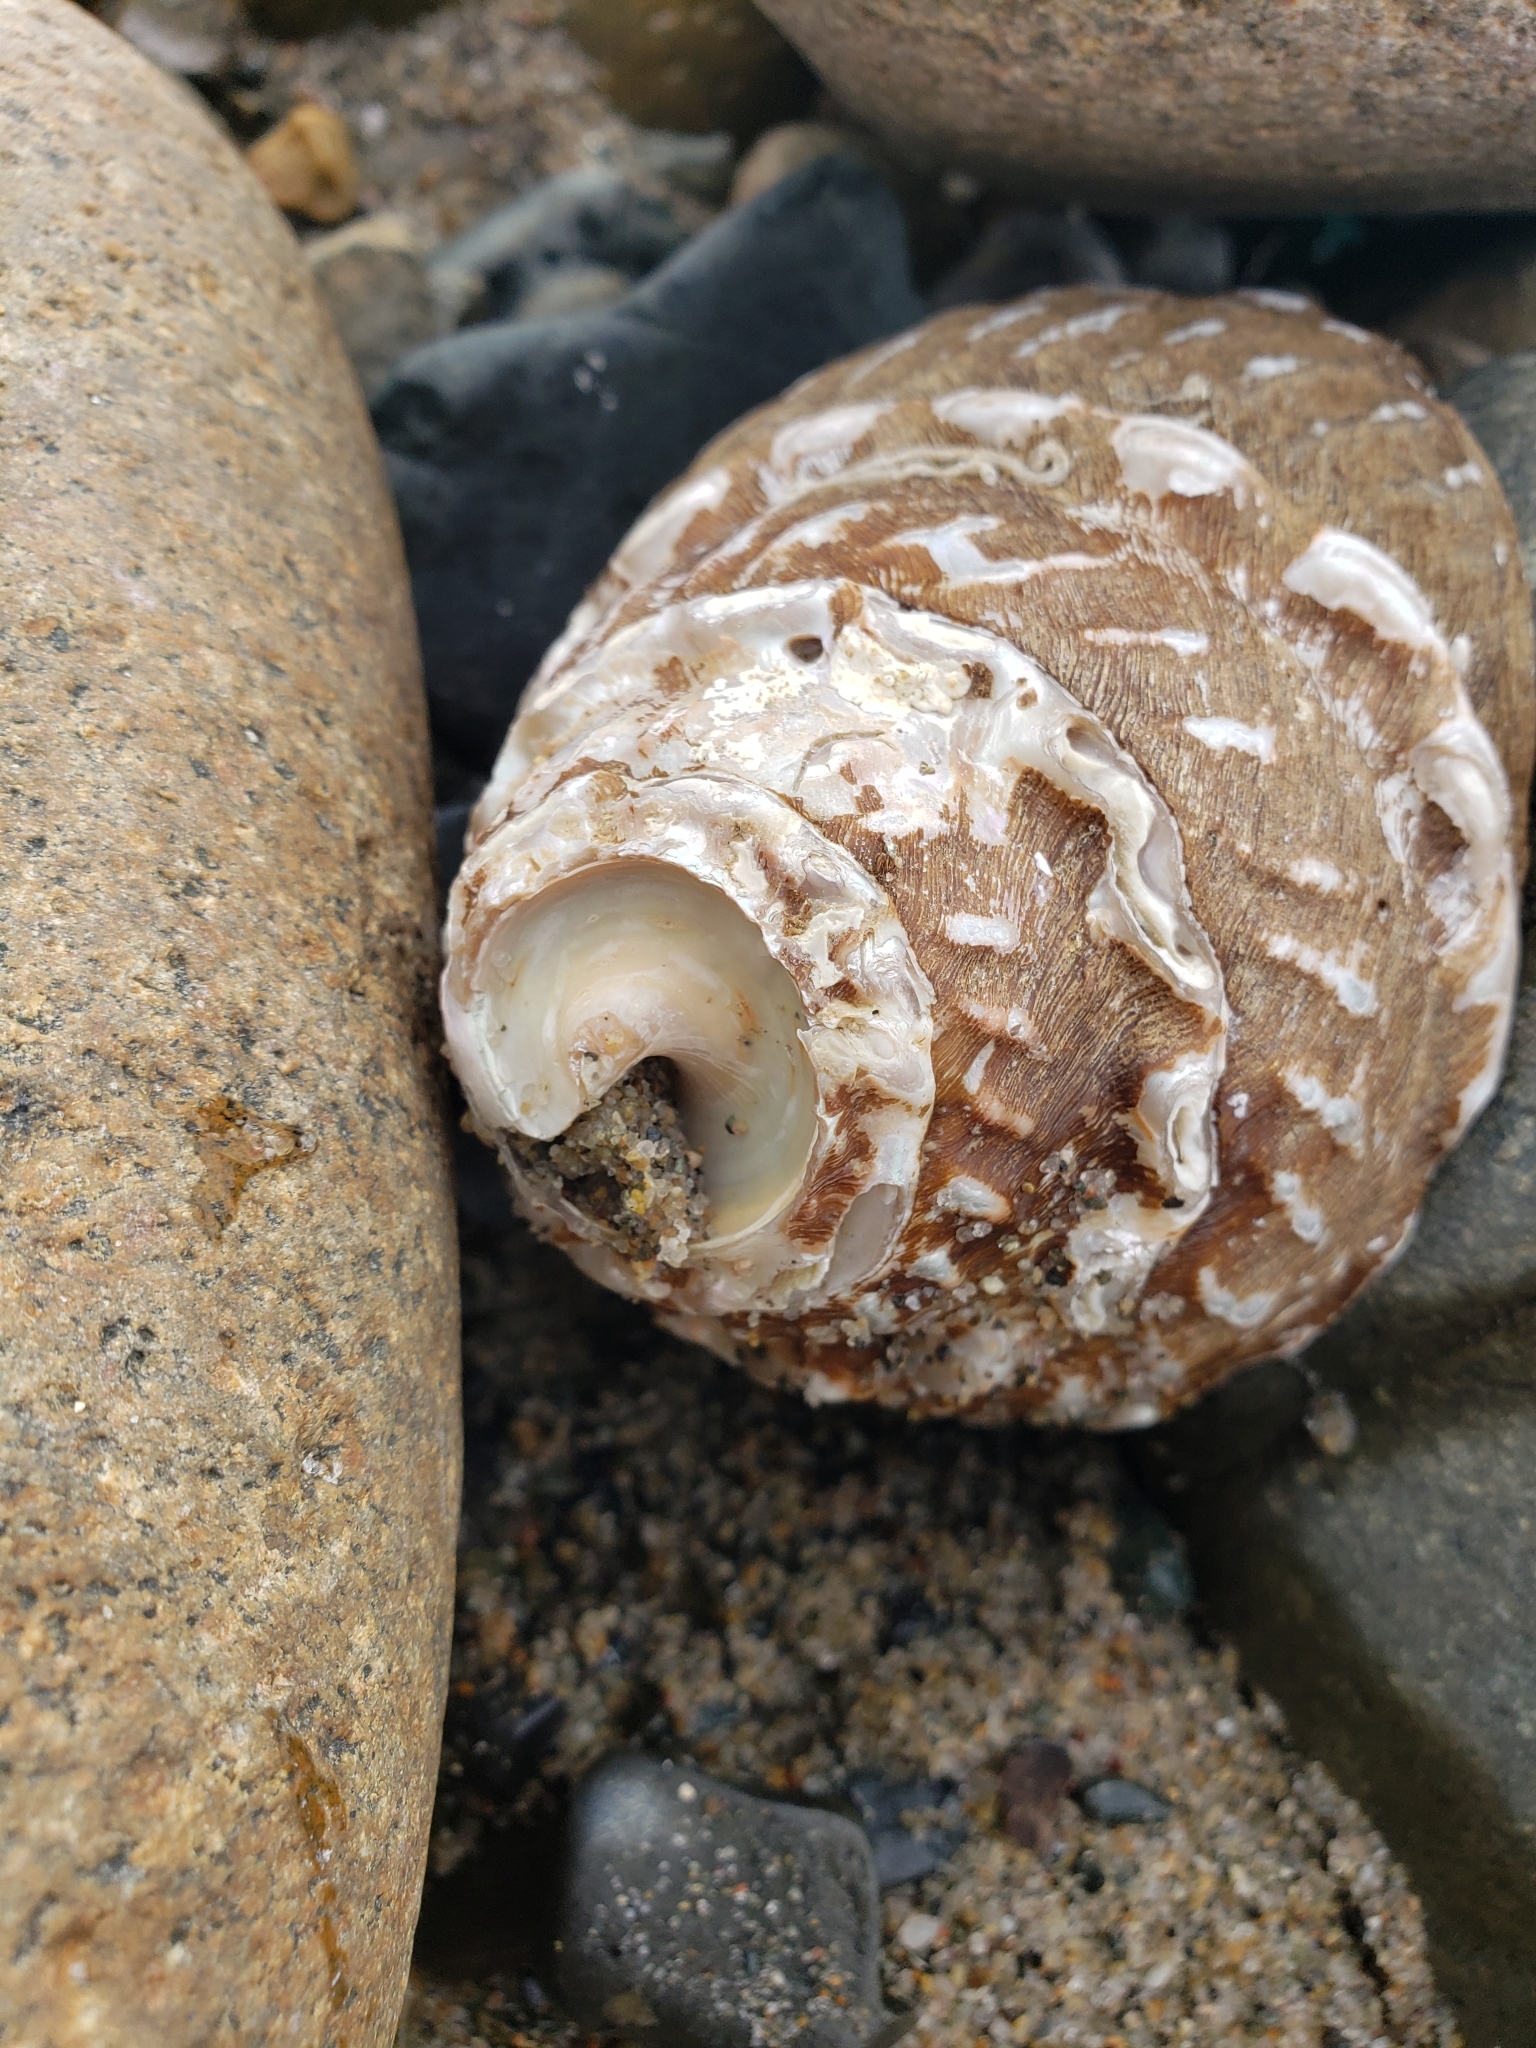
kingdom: Animalia
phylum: Mollusca
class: Gastropoda
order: Trochida
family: Turbinidae
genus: Megastraea
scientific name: Megastraea undosa
